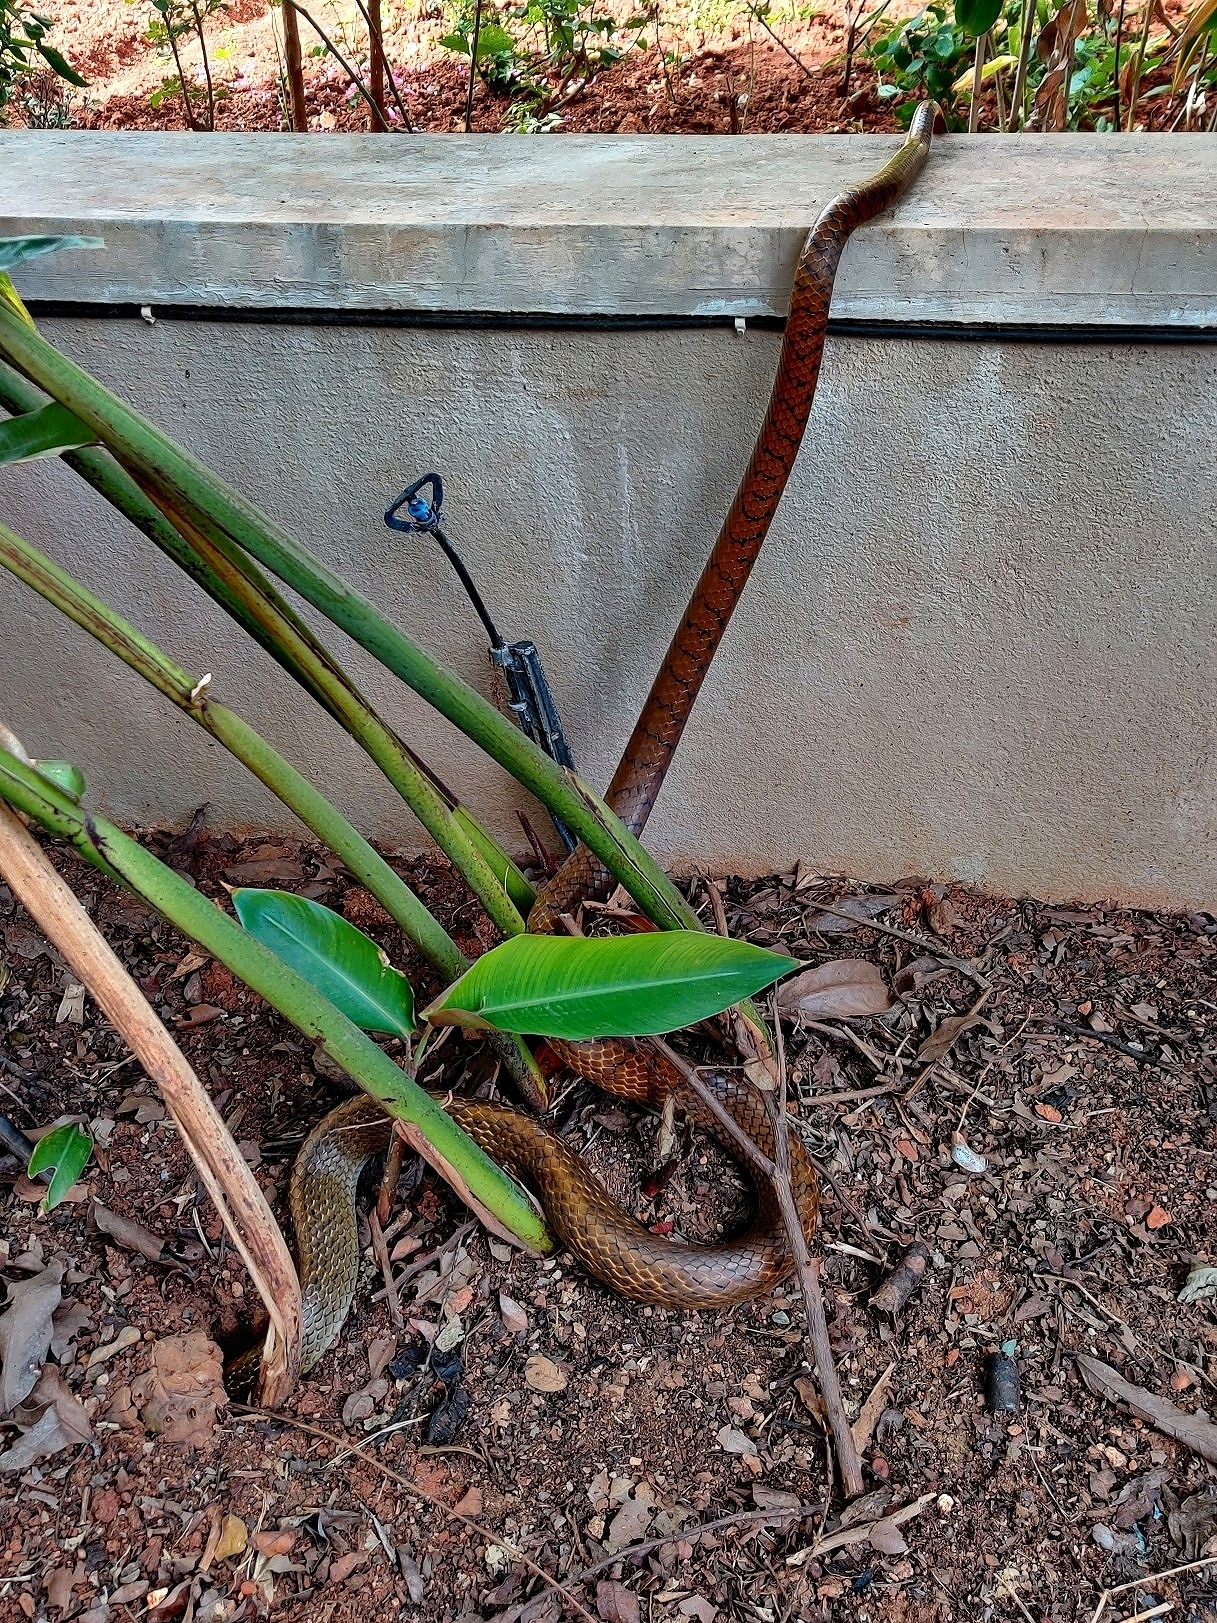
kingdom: Animalia
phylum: Chordata
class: Squamata
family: Colubridae
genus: Ptyas
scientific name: Ptyas mucosa
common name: Oriental ratsnake
